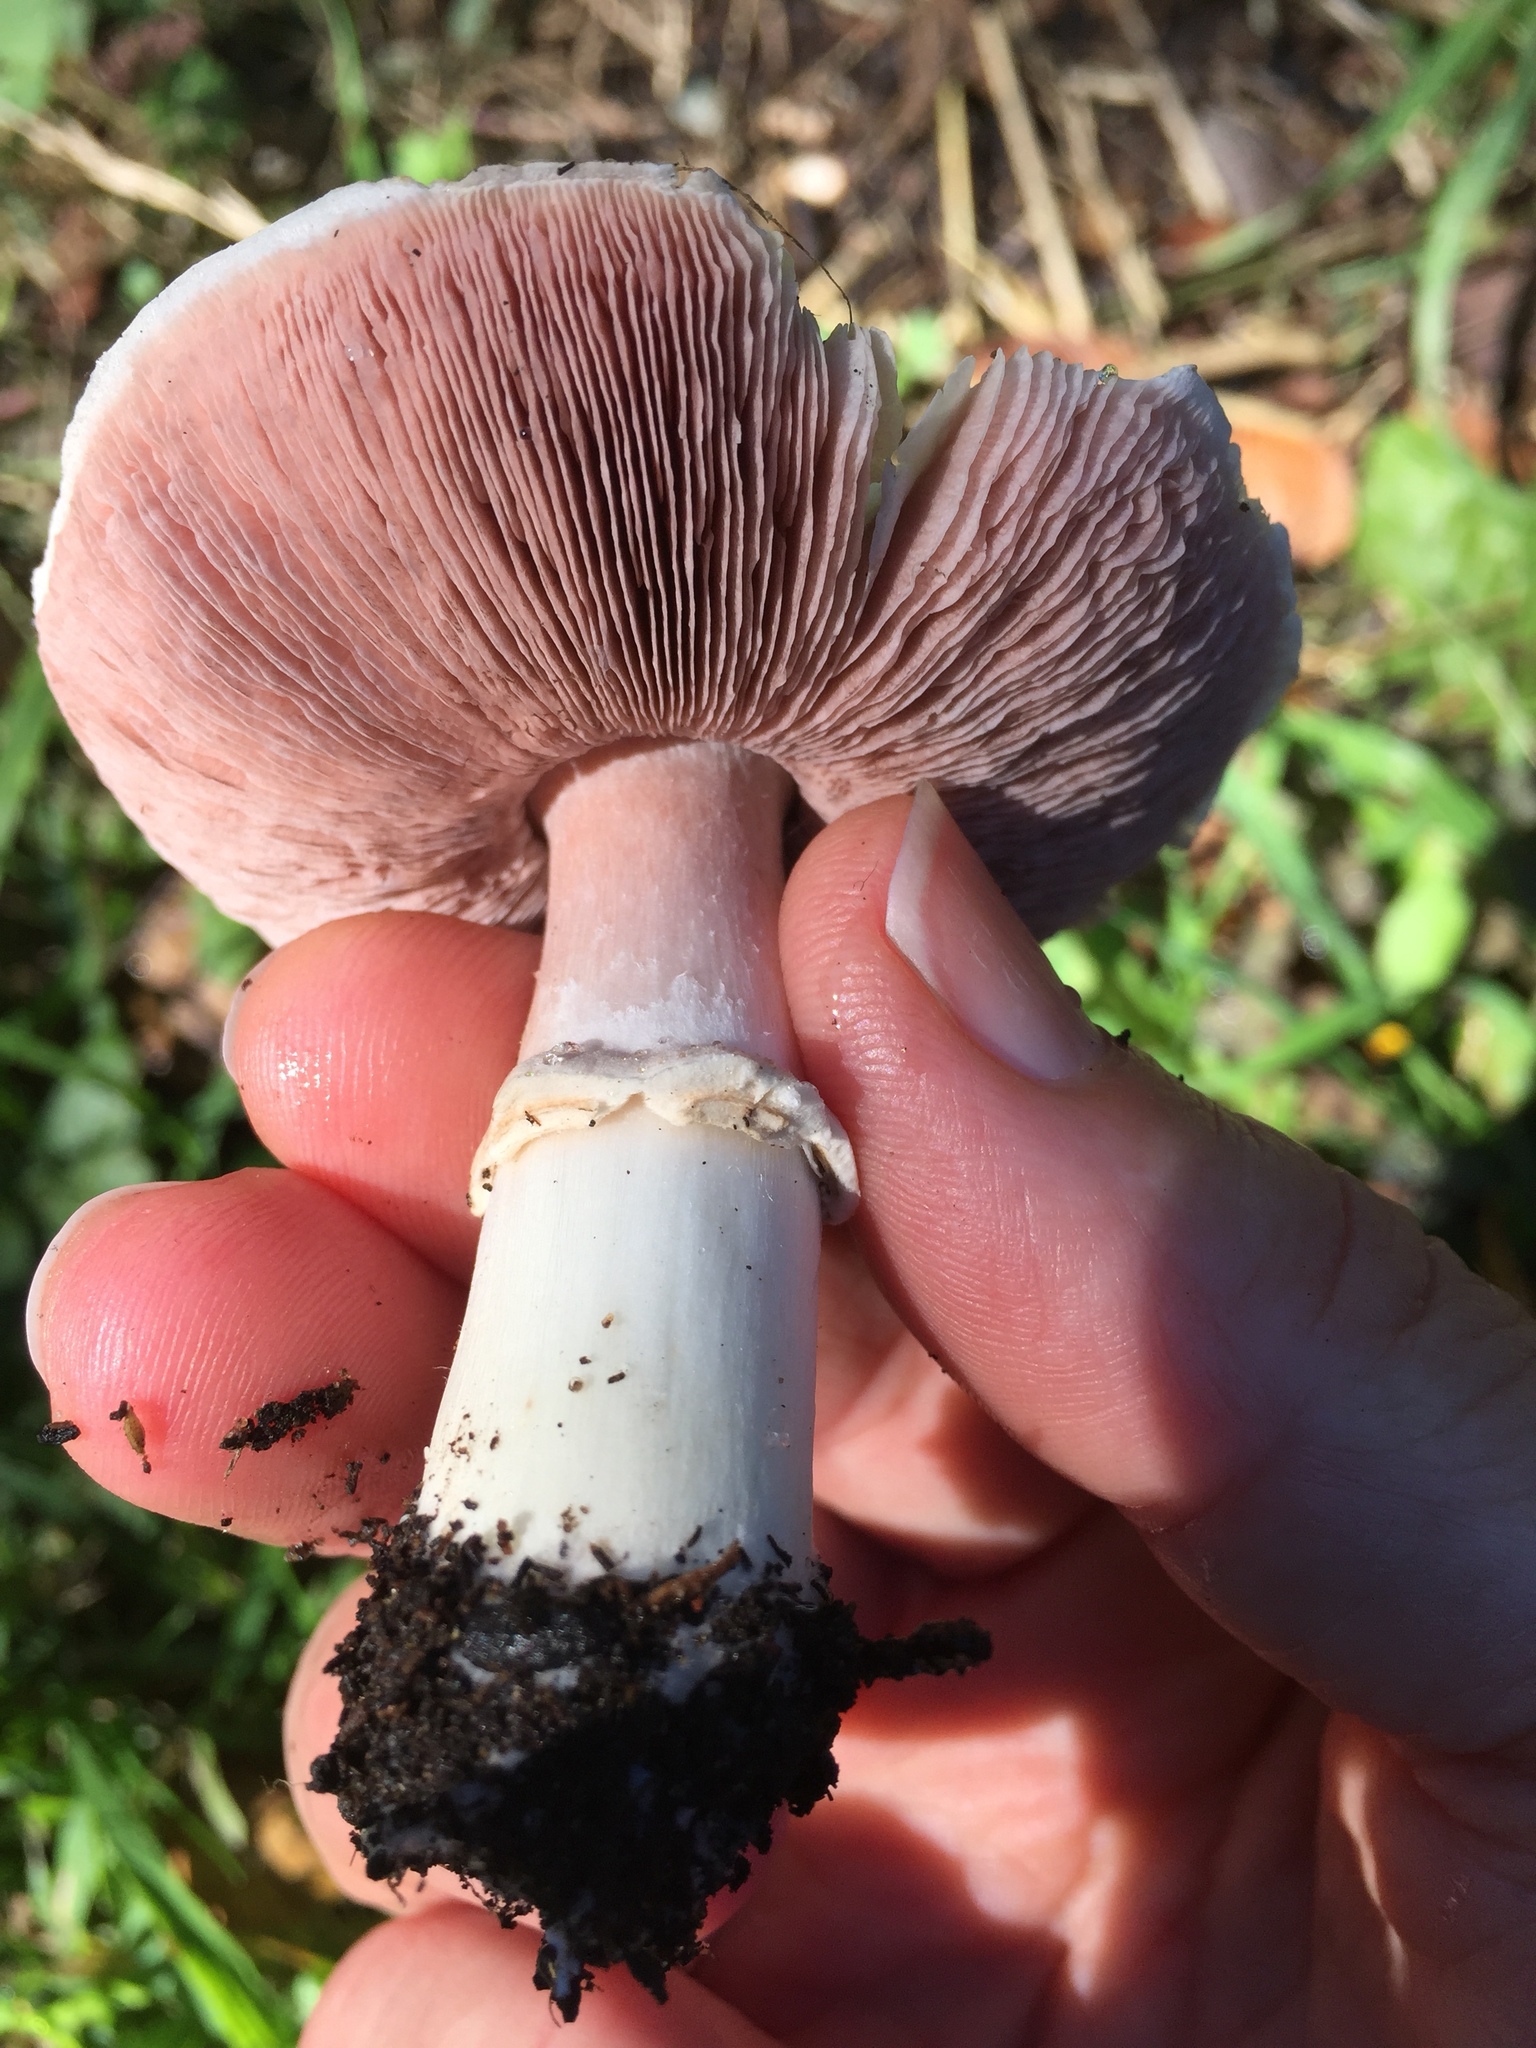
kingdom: Fungi
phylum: Basidiomycota
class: Agaricomycetes
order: Agaricales
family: Agaricaceae
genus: Agaricus
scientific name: Agaricus californicus
